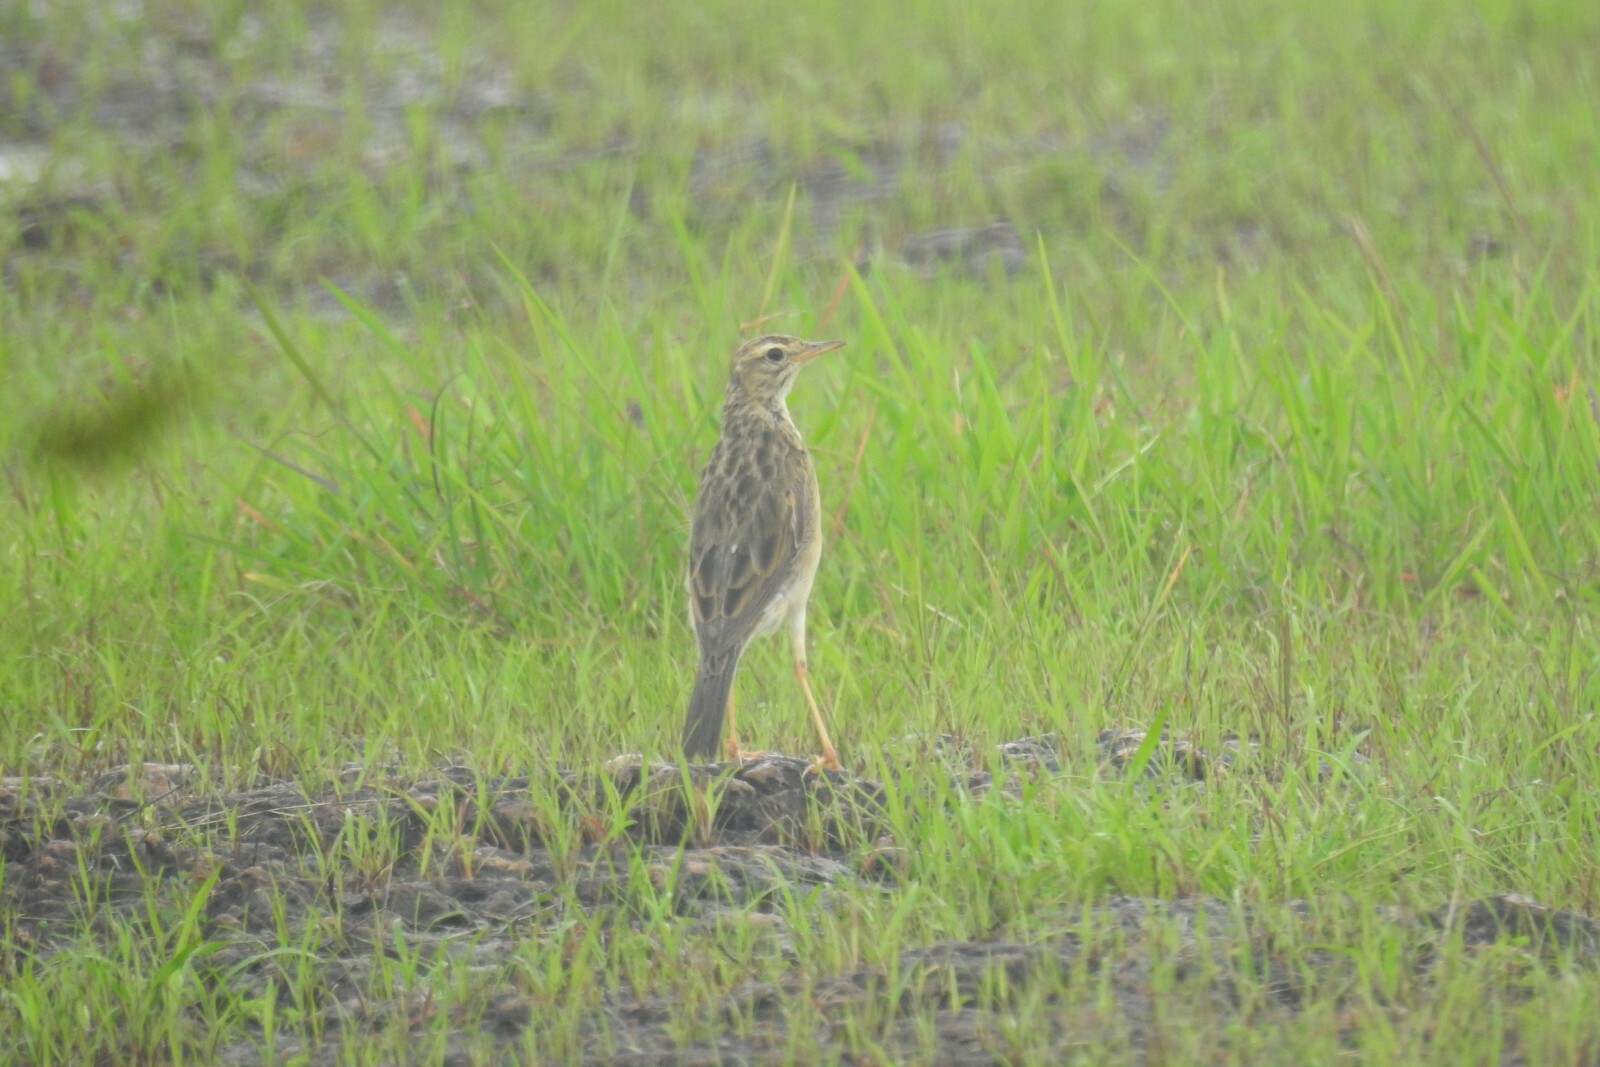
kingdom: Animalia
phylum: Chordata
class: Aves
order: Passeriformes
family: Motacillidae
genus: Anthus
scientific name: Anthus rufulus
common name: Paddyfield pipit
